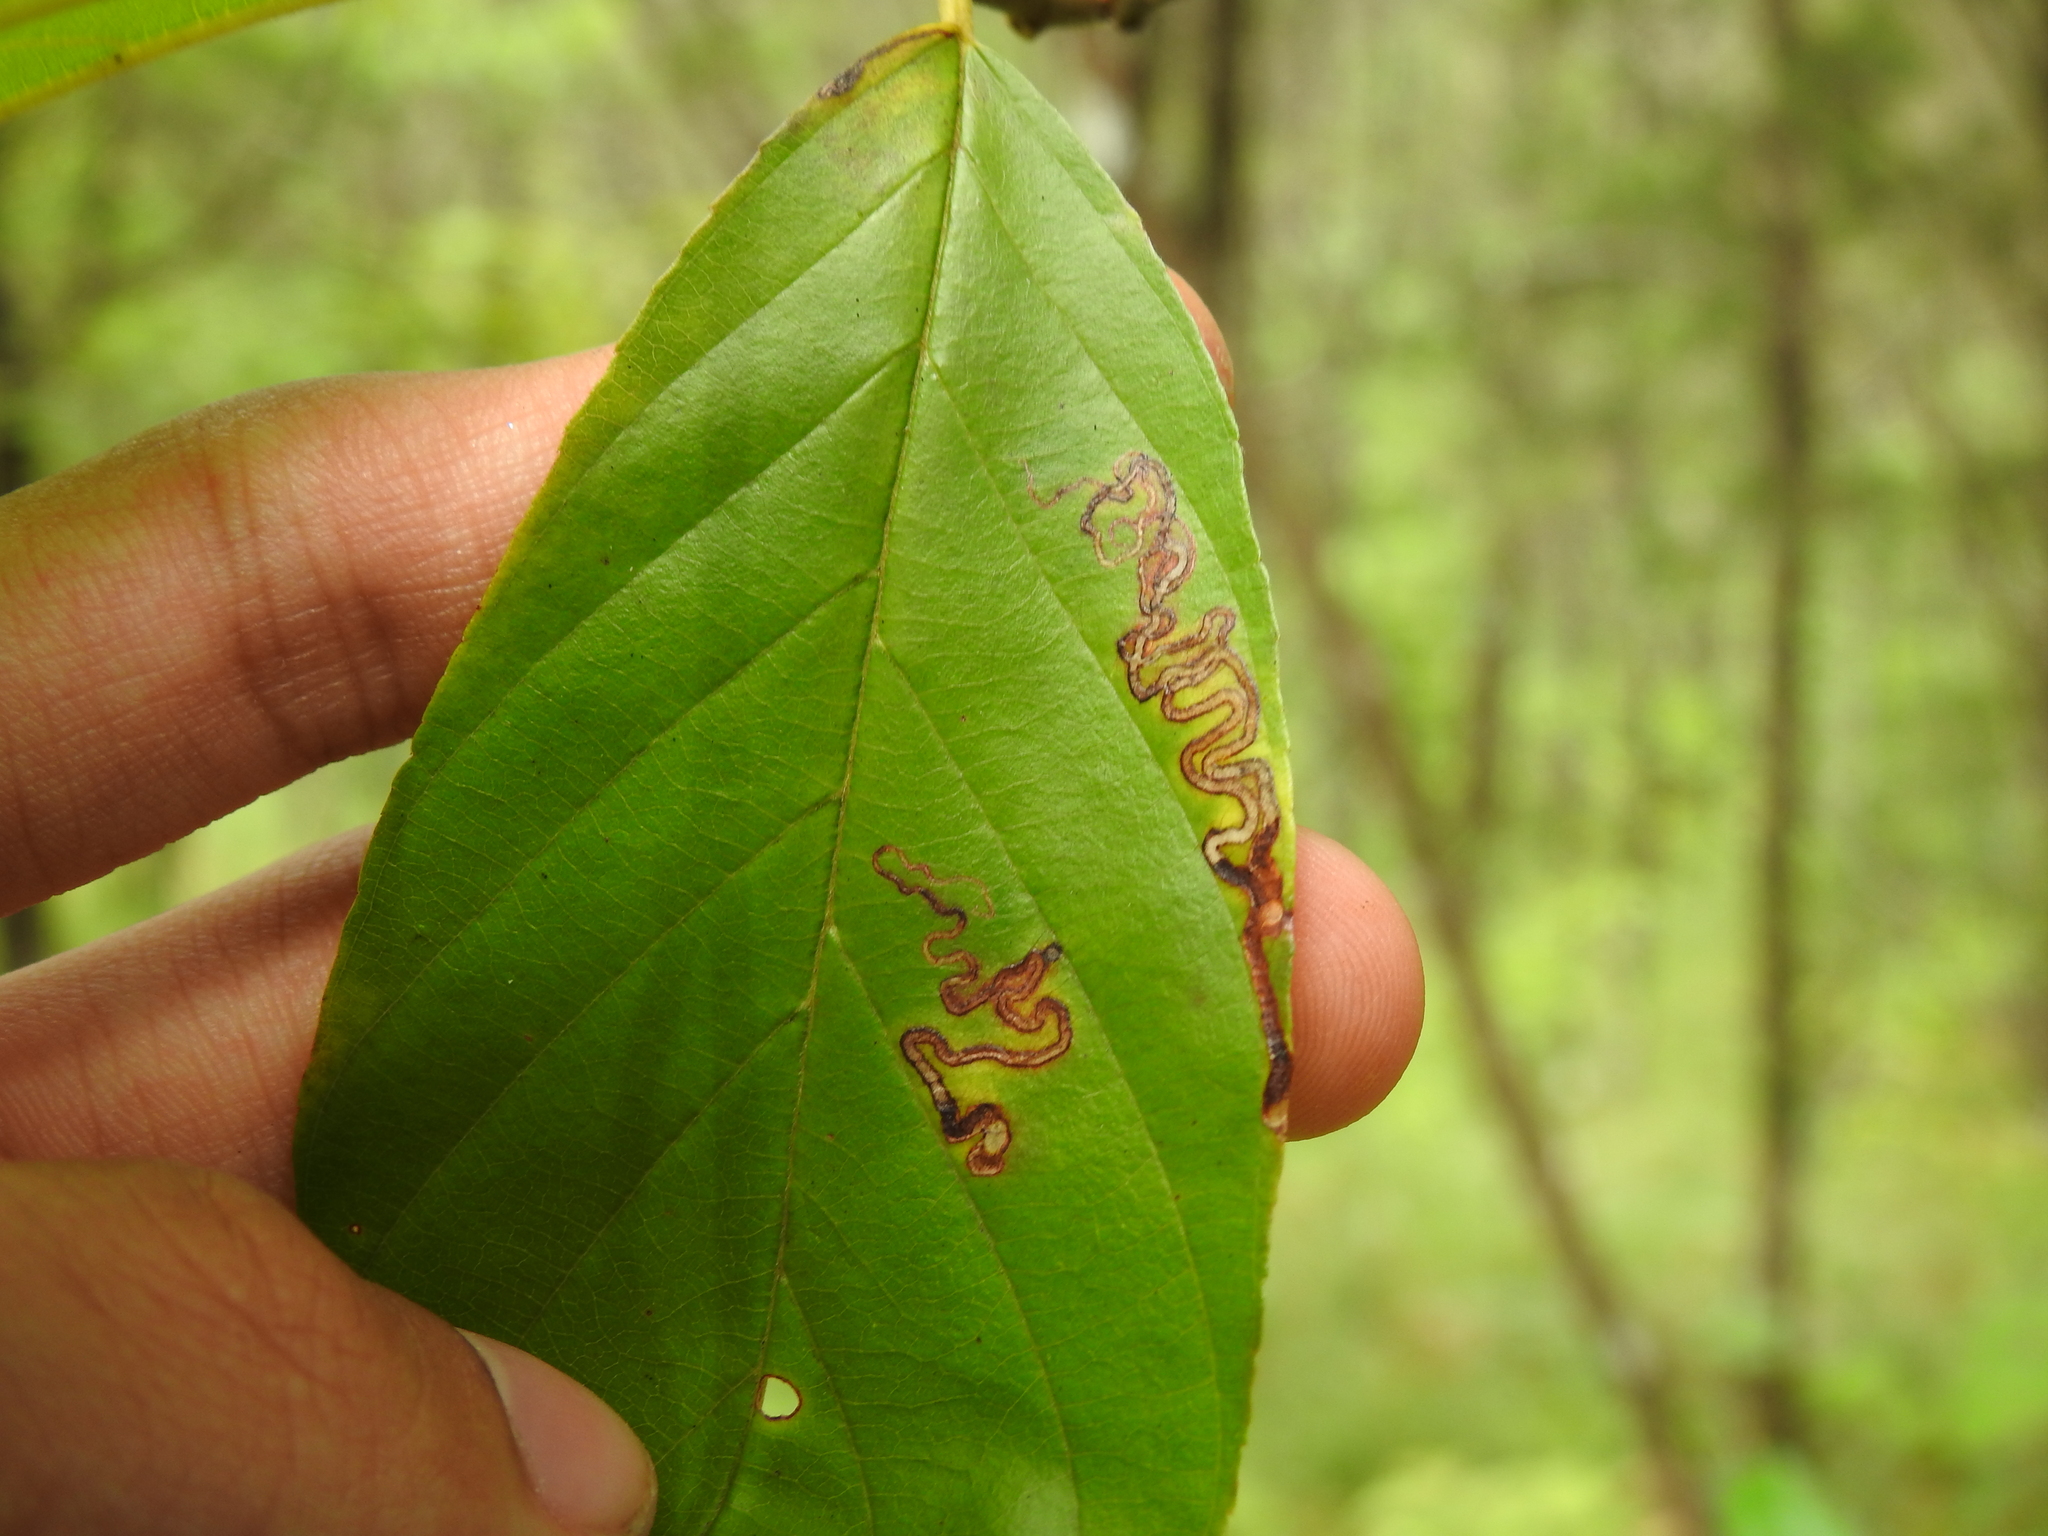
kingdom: Animalia
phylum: Arthropoda
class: Insecta
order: Lepidoptera
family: Nepticulidae
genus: Stigmella
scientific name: Stigmella rhamnicola
